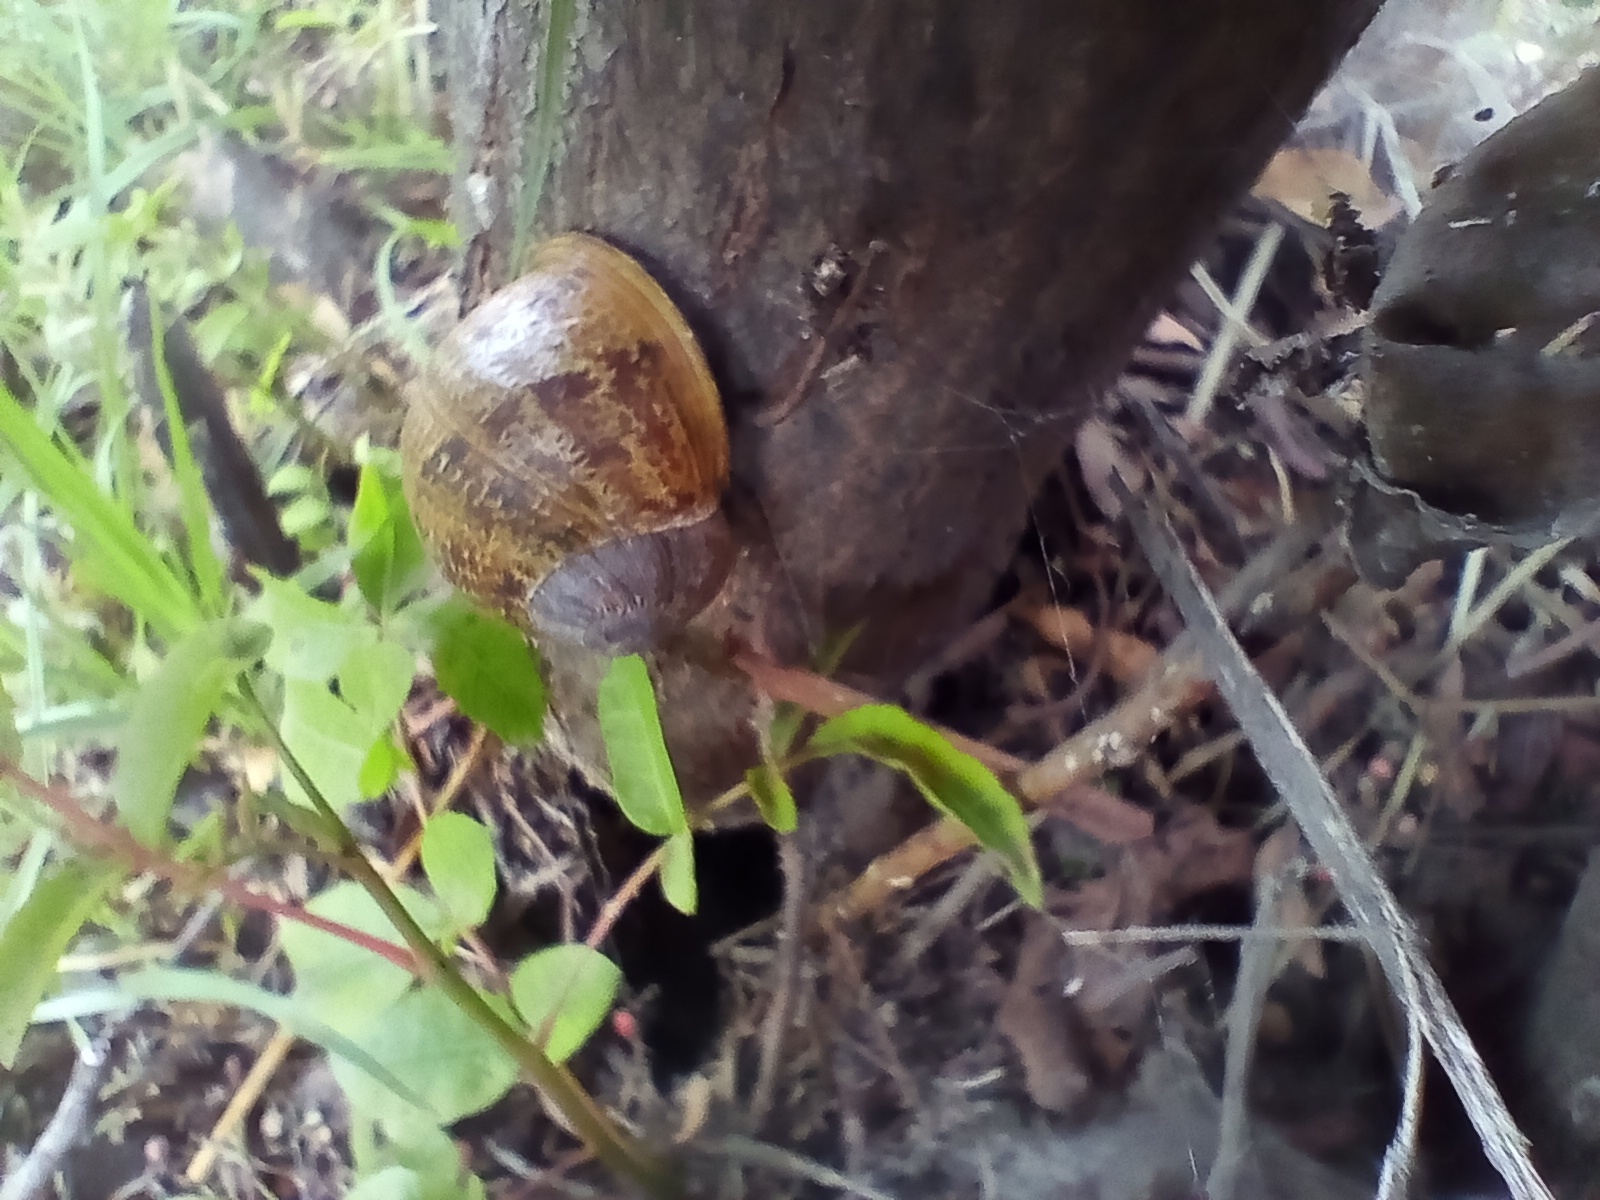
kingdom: Animalia
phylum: Mollusca
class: Gastropoda
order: Stylommatophora
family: Helicidae
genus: Cornu
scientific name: Cornu aspersum
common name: Brown garden snail
